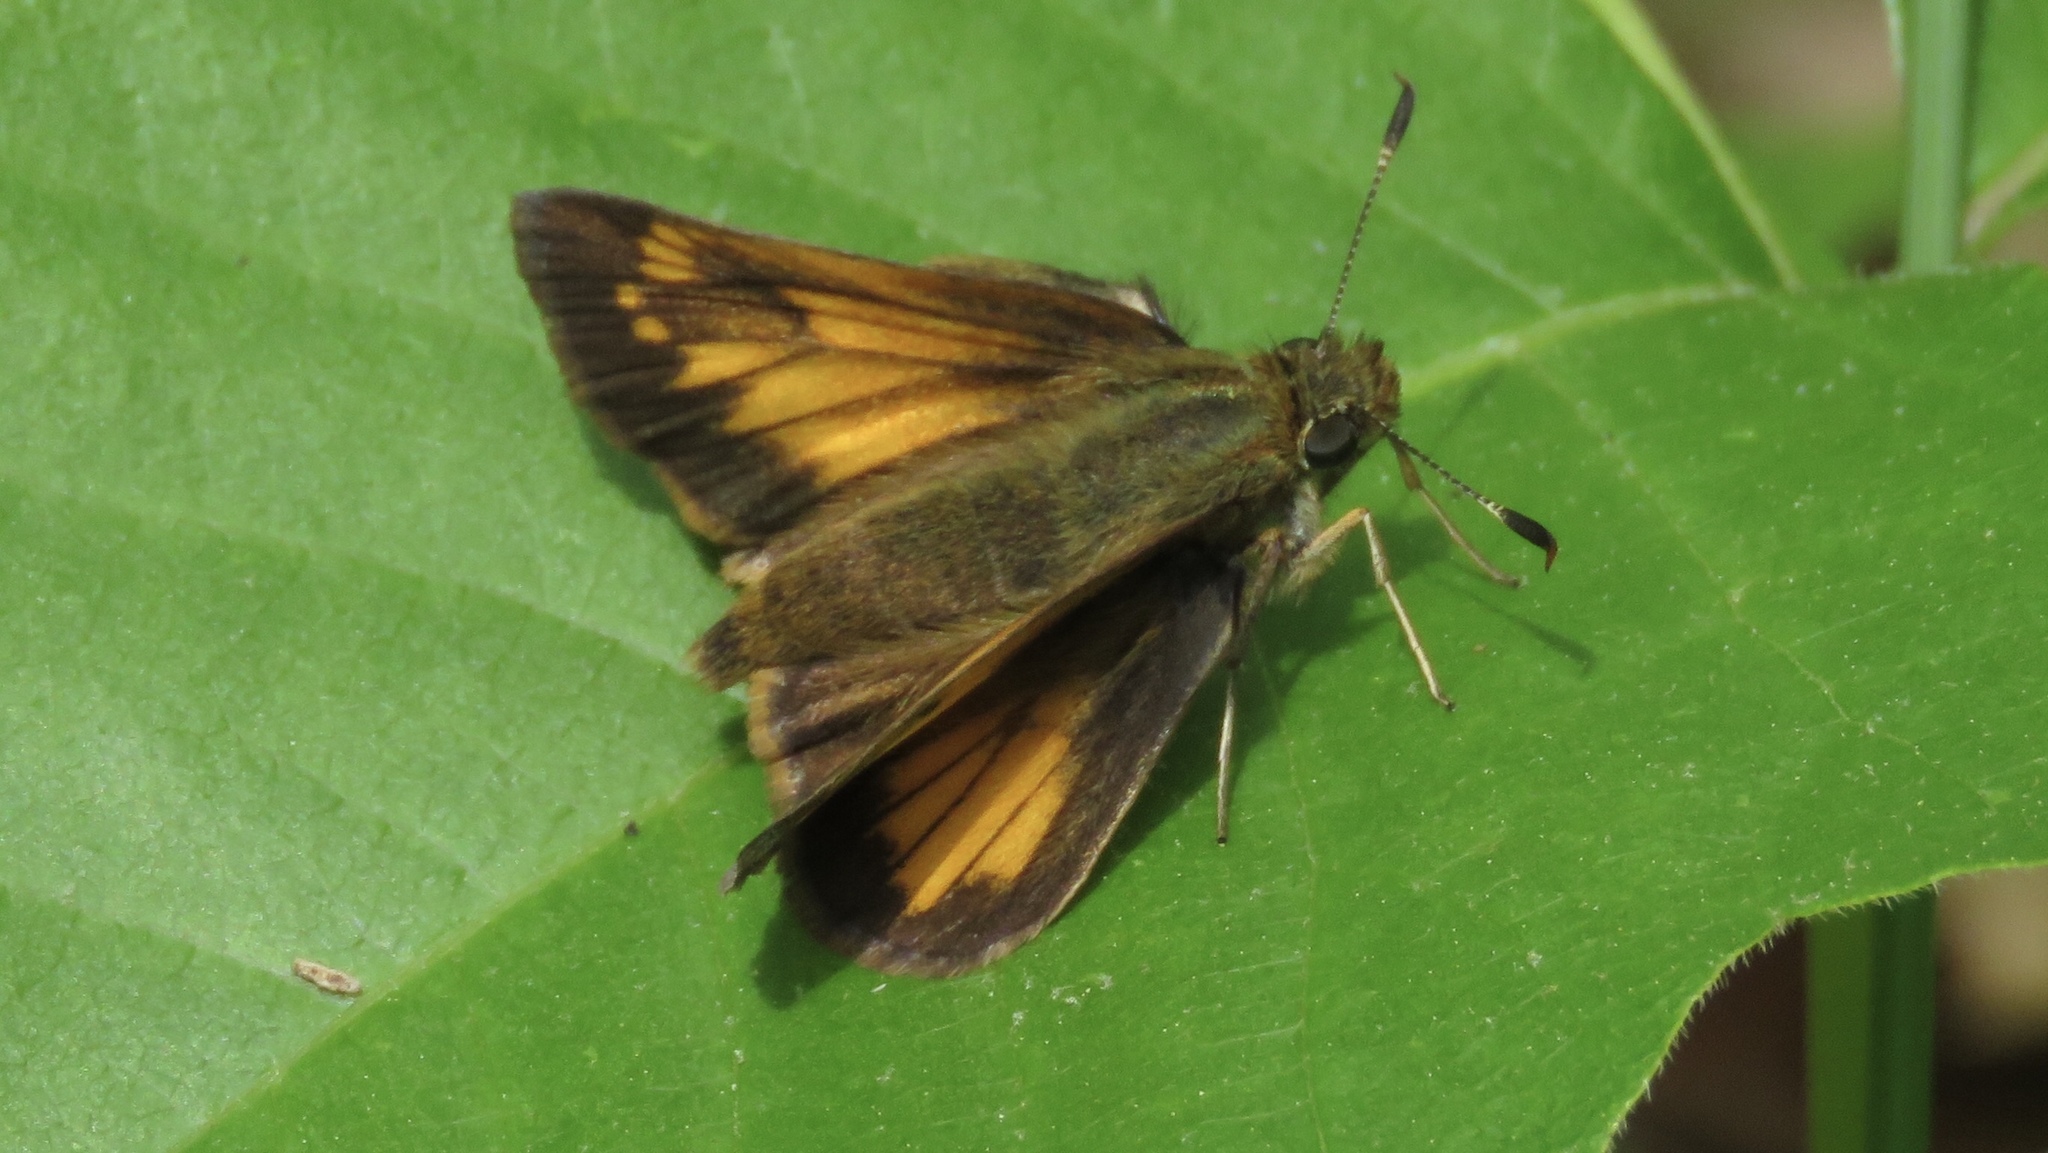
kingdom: Animalia
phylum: Arthropoda
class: Insecta
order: Lepidoptera
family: Hesperiidae
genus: Lon
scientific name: Lon hobomok
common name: Hobomok skipper
